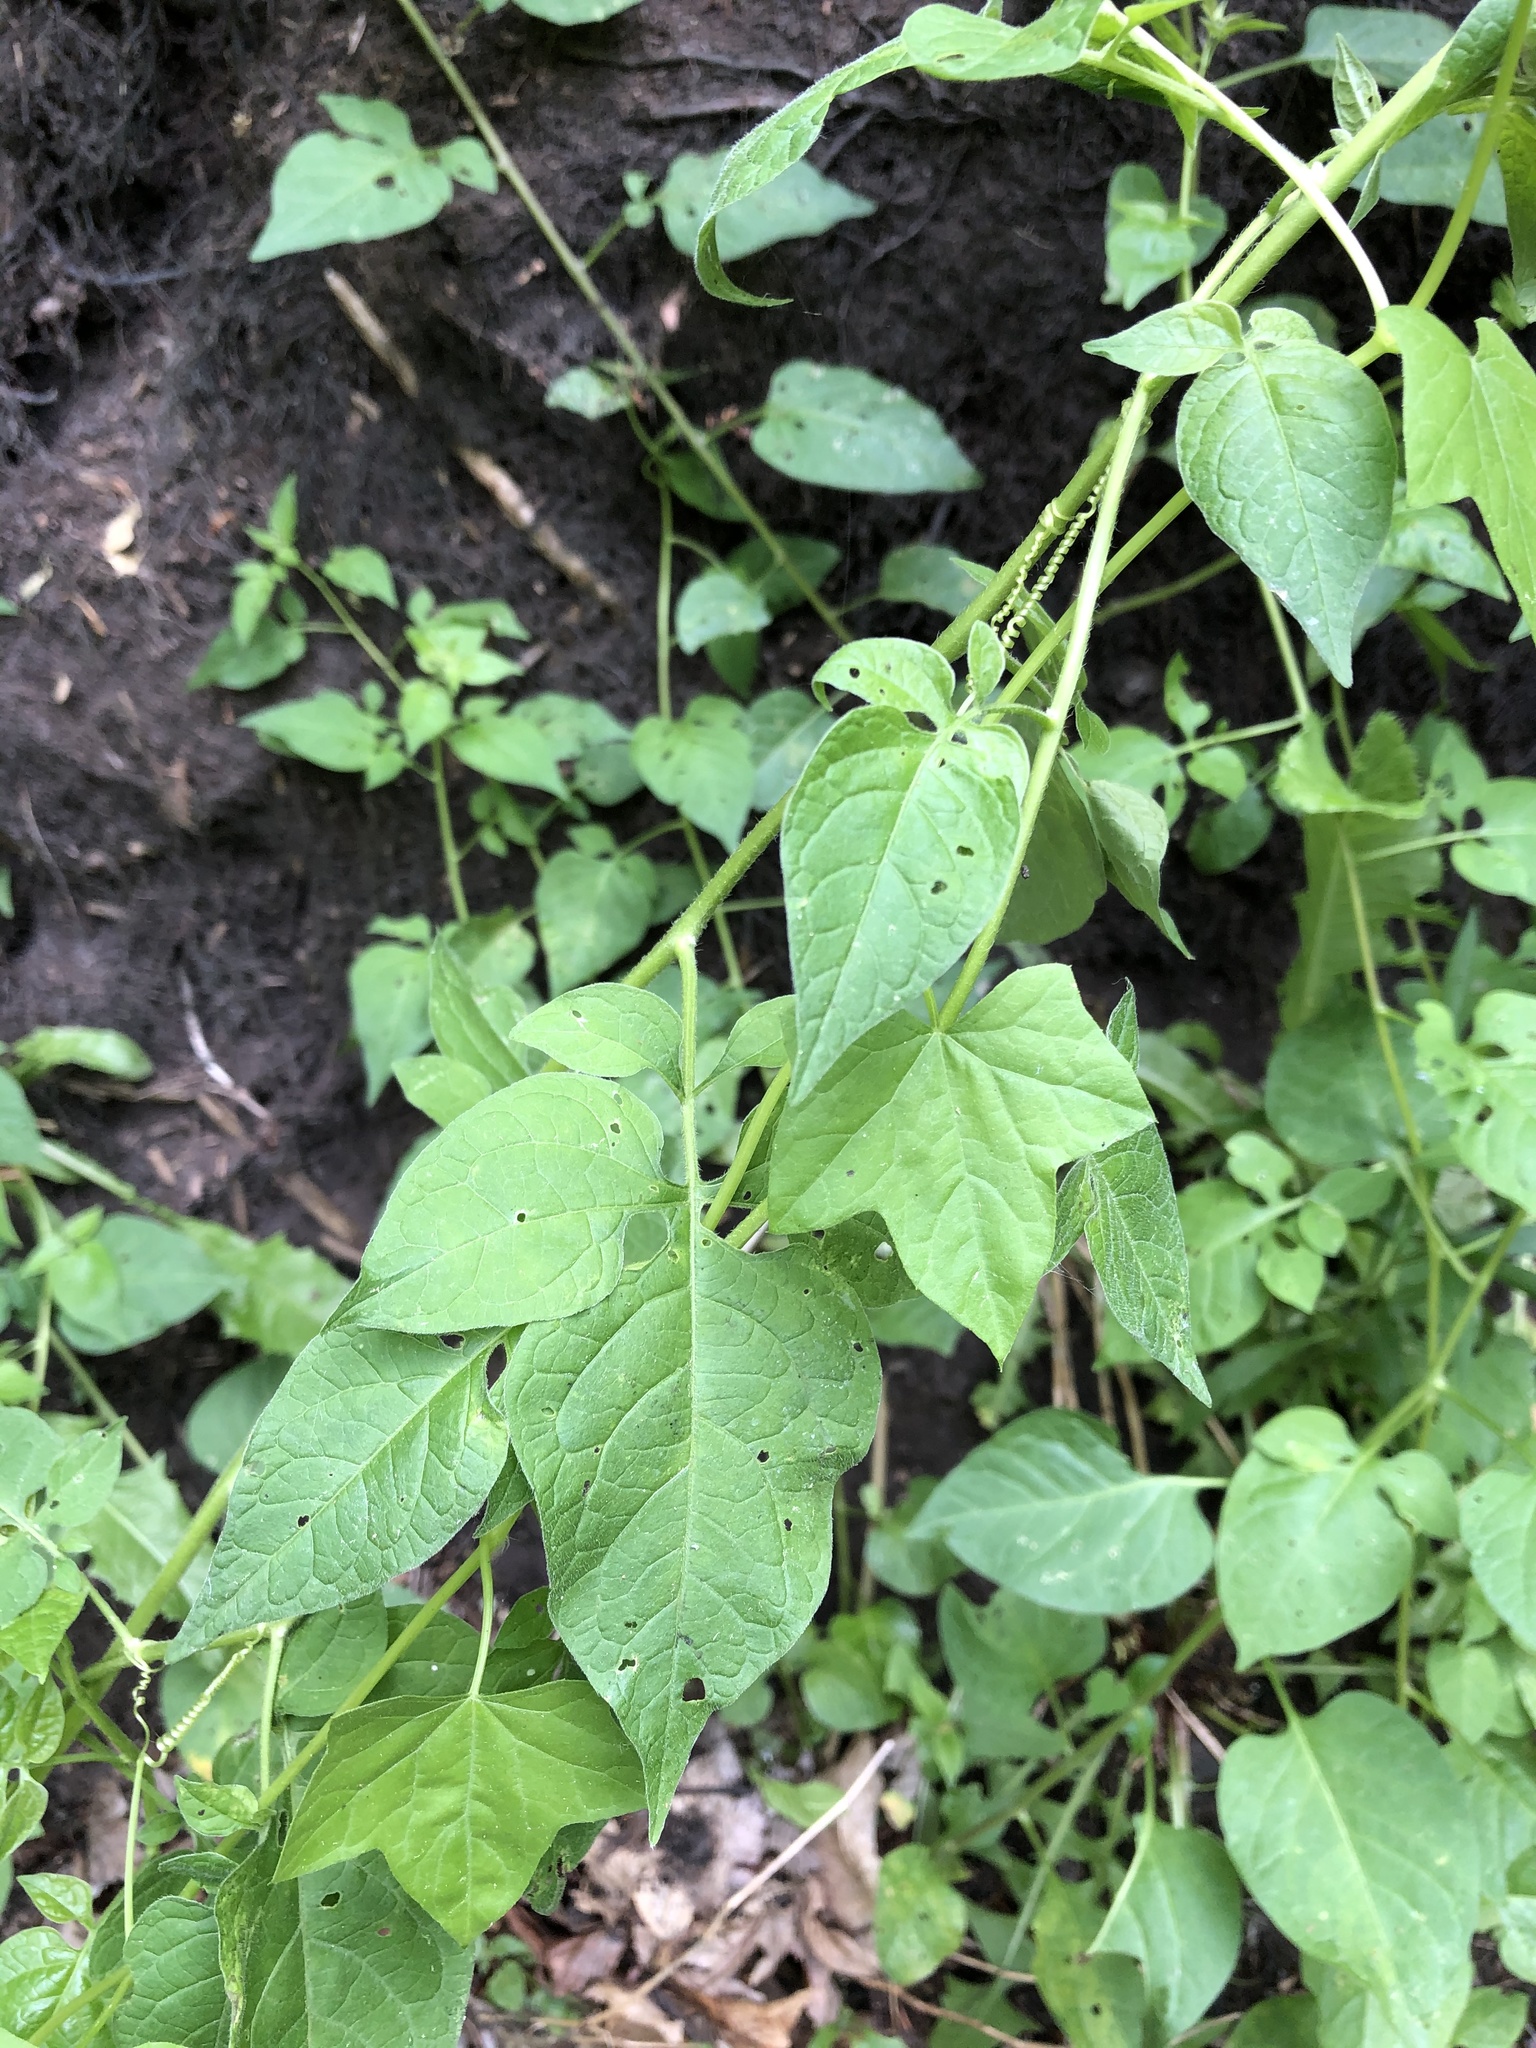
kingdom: Plantae
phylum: Tracheophyta
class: Magnoliopsida
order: Solanales
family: Solanaceae
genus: Solanum
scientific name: Solanum dulcamara
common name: Climbing nightshade
